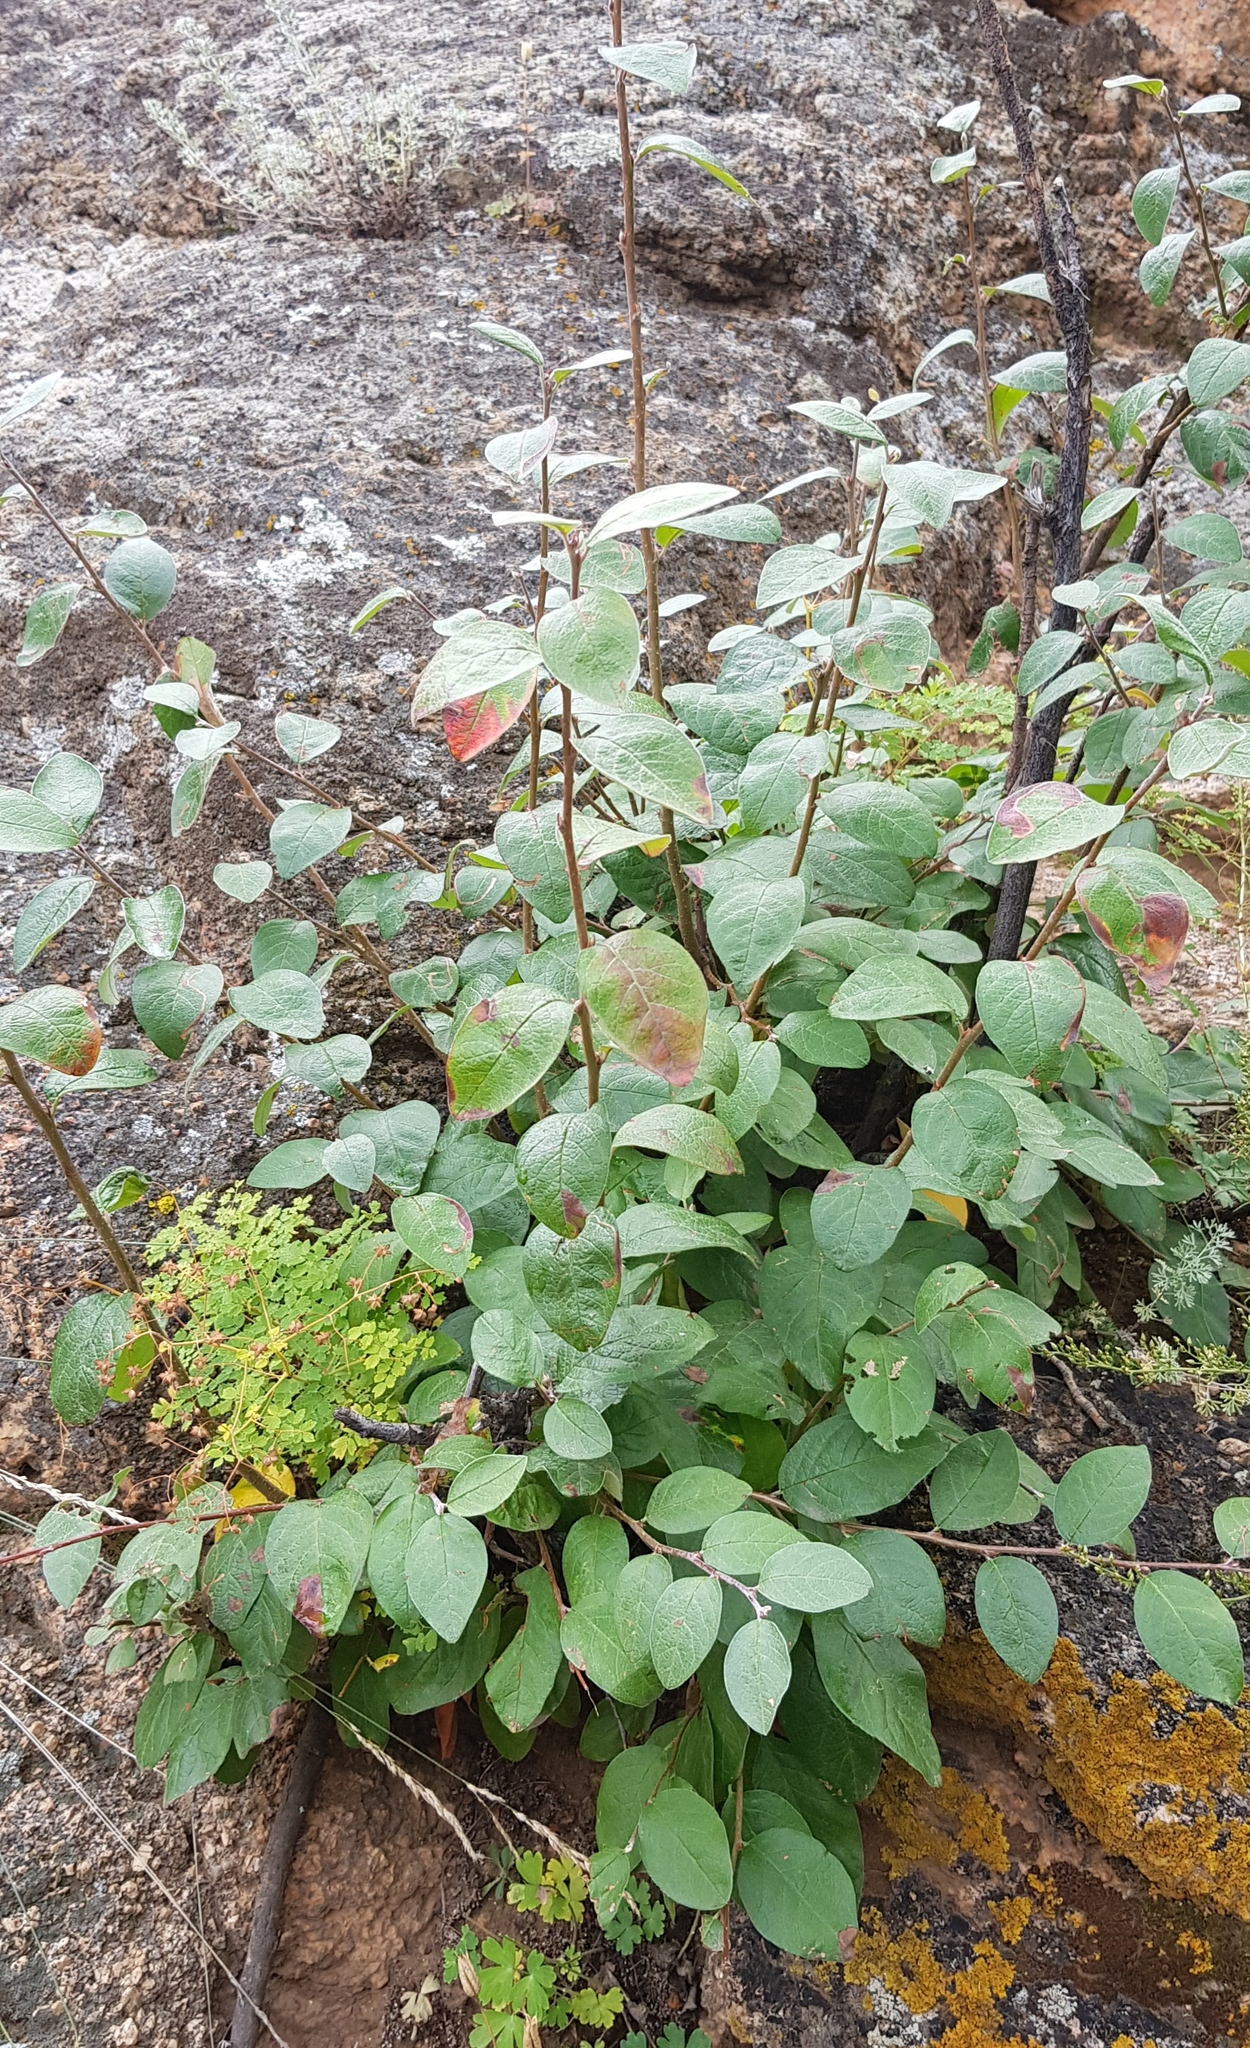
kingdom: Plantae
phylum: Tracheophyta
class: Magnoliopsida
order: Rosales
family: Rosaceae
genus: Cotoneaster
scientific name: Cotoneaster mongolicus
